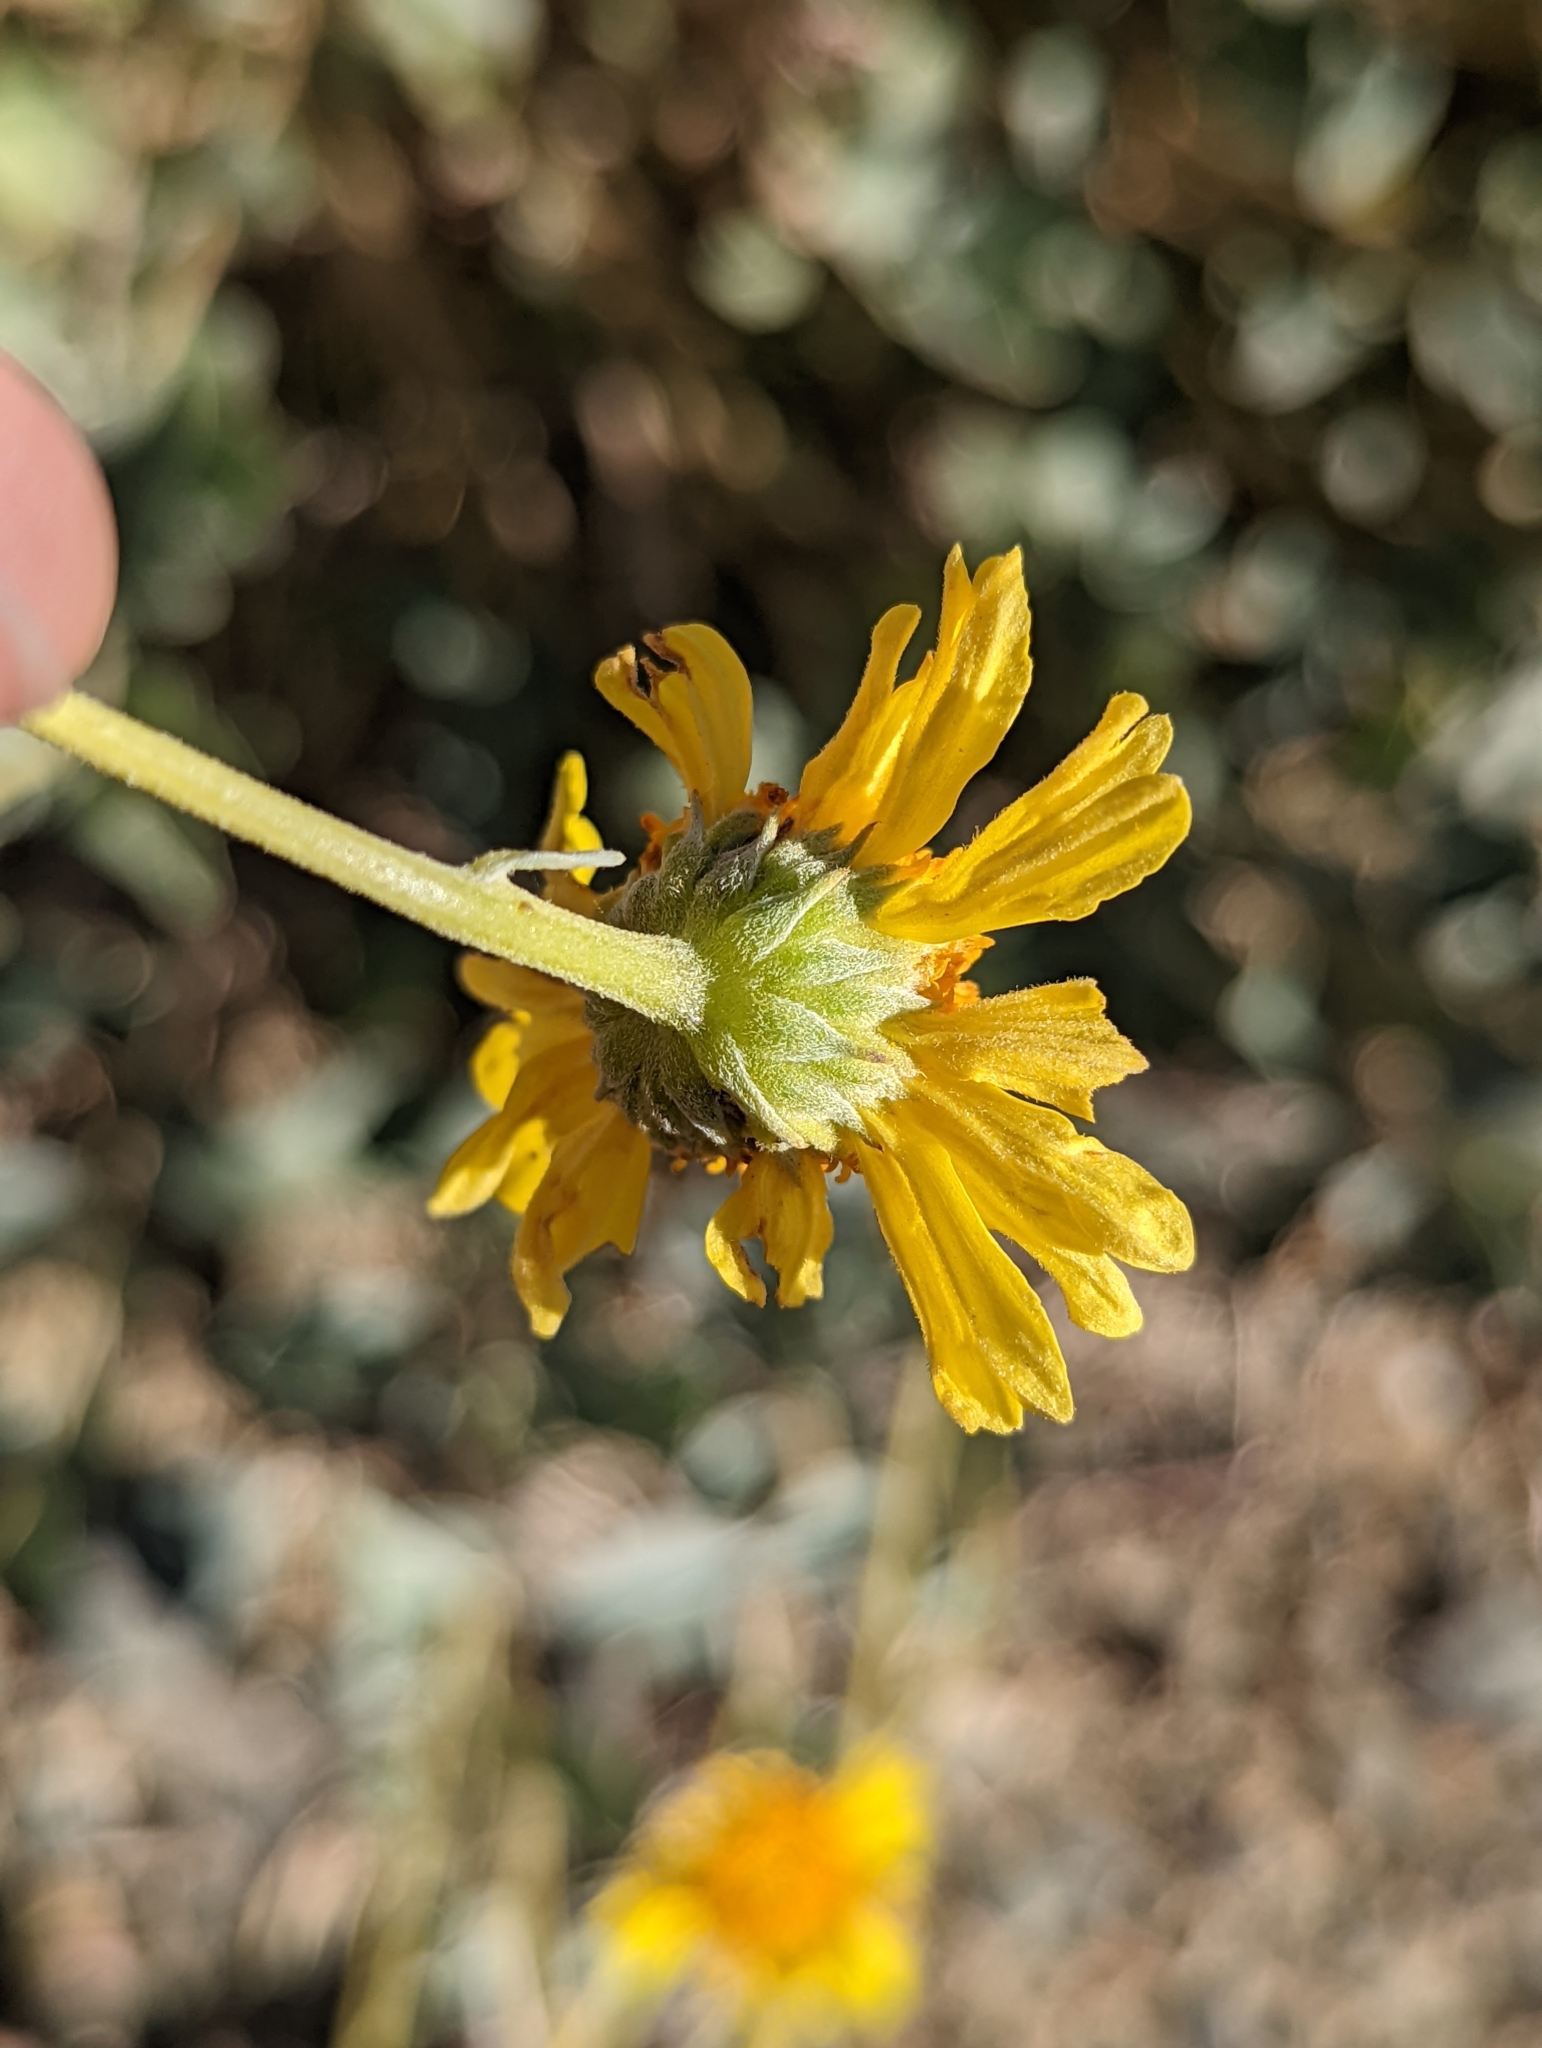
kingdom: Plantae
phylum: Tracheophyta
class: Magnoliopsida
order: Asterales
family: Asteraceae
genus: Encelia
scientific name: Encelia actoni
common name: Acton encelia
